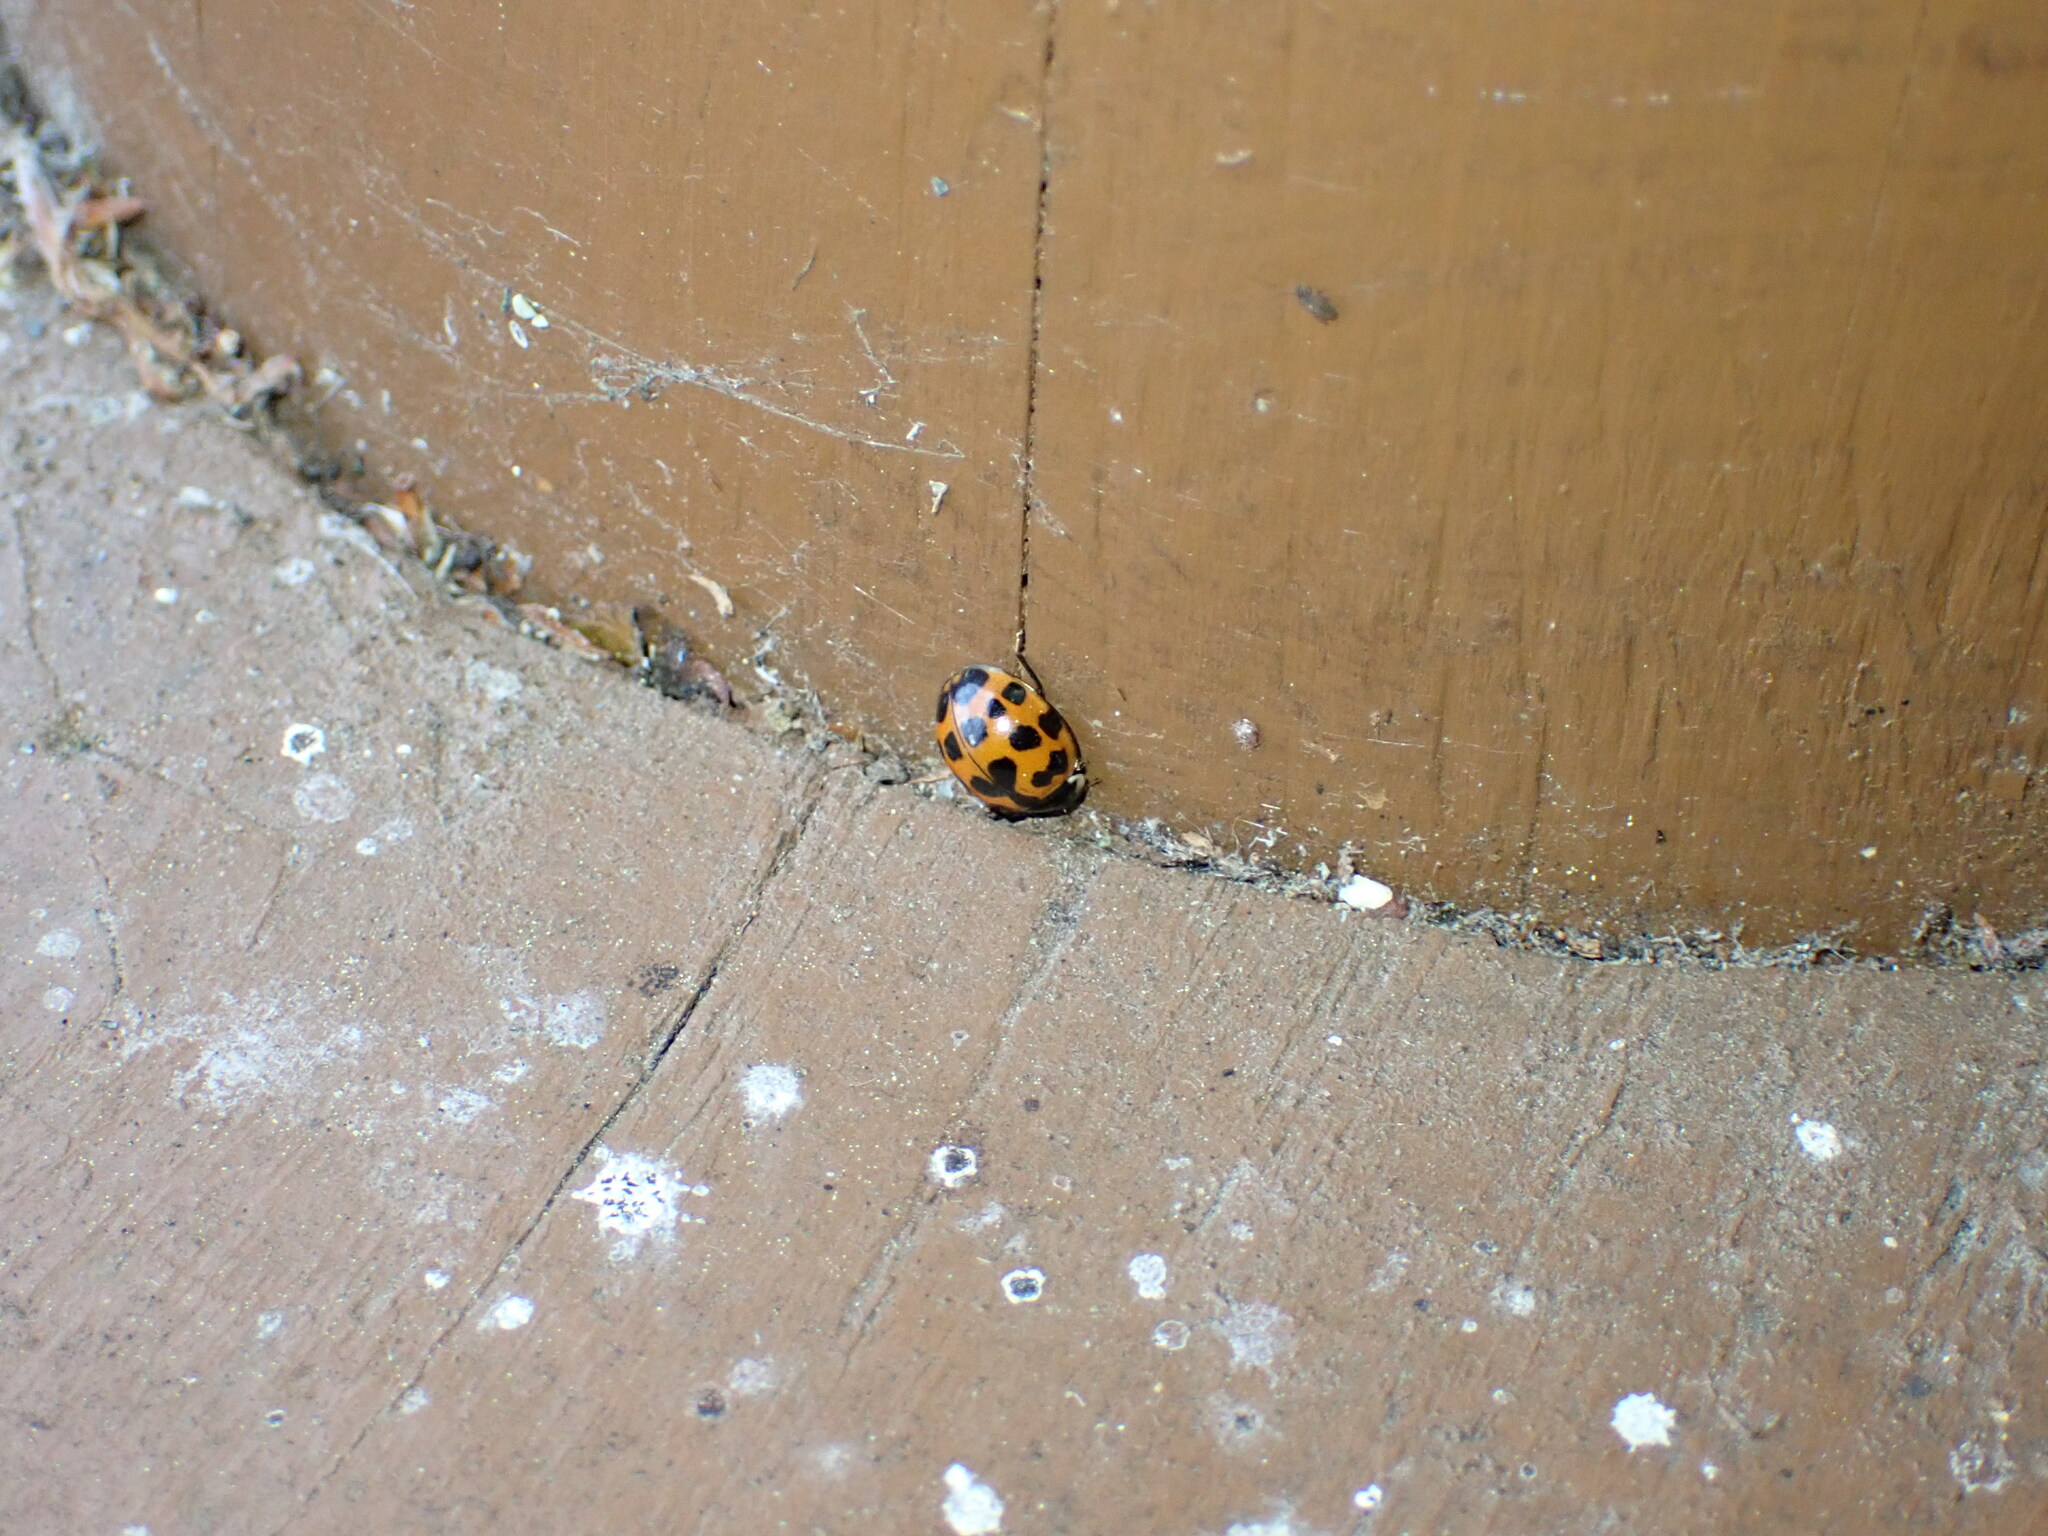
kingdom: Animalia
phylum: Arthropoda
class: Insecta
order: Coleoptera
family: Coccinellidae
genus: Harmonia
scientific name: Harmonia axyridis
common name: Harlequin ladybird
